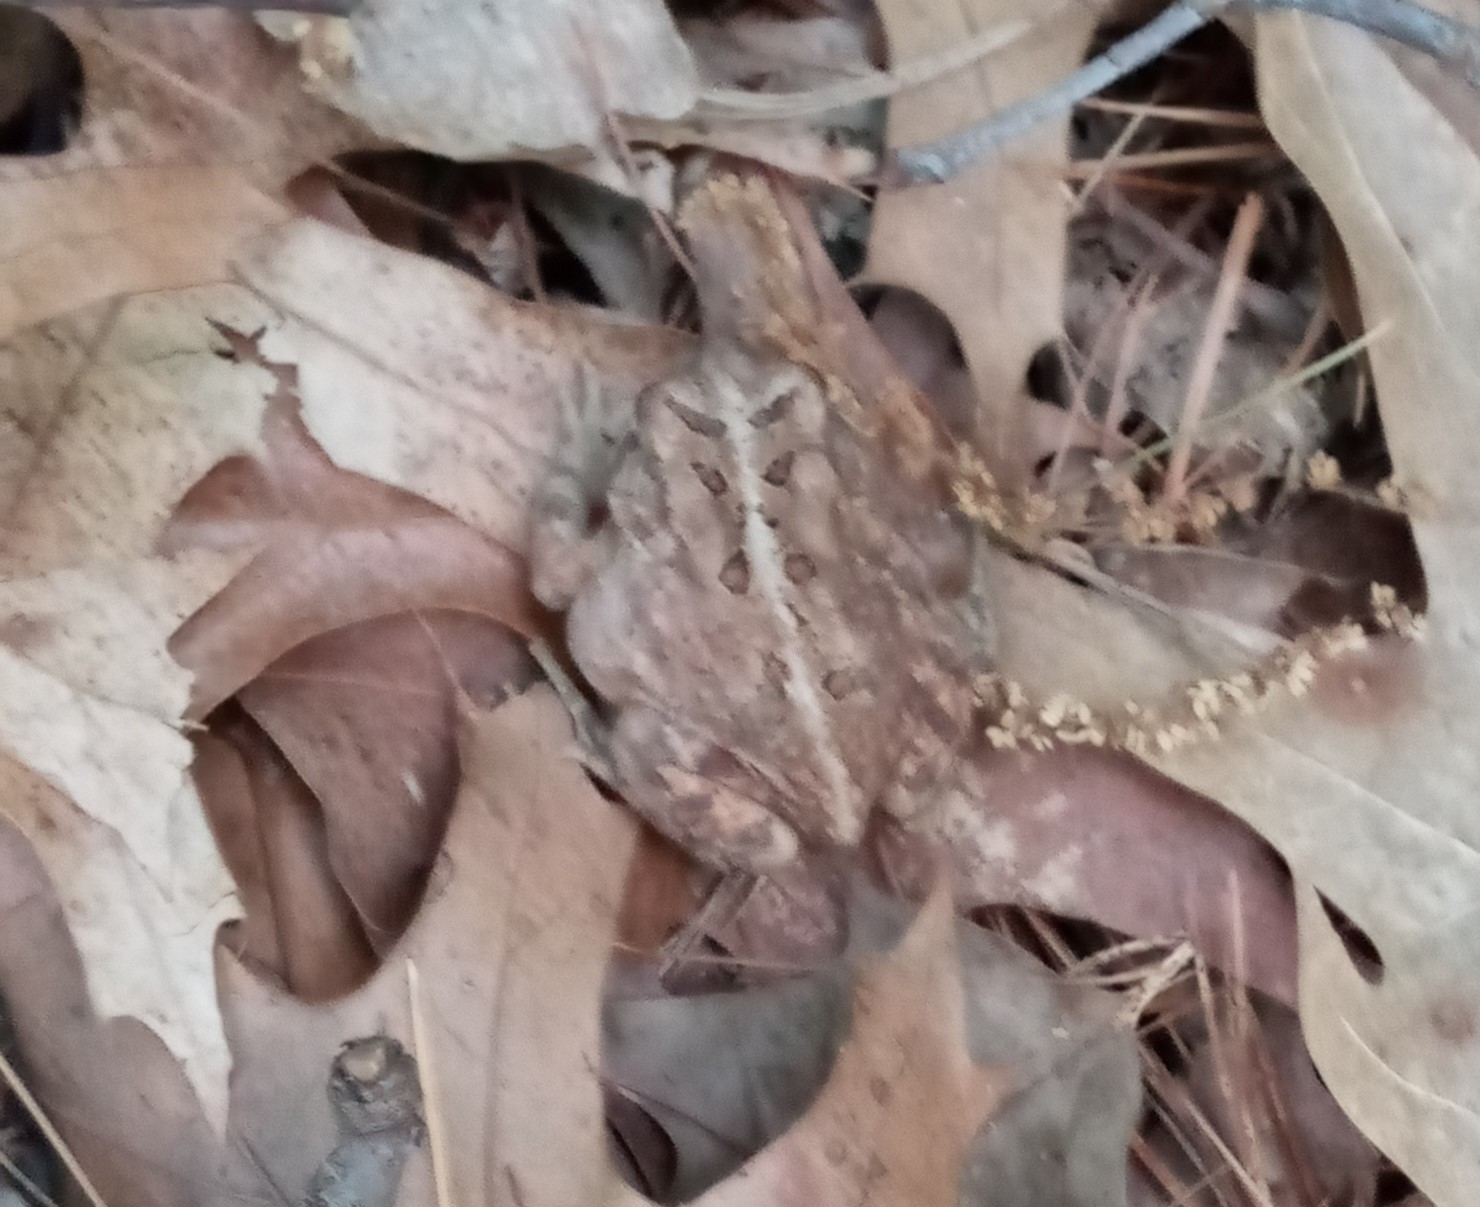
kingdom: Animalia
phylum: Chordata
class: Amphibia
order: Anura
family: Bufonidae
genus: Anaxyrus
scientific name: Anaxyrus americanus
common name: American toad
